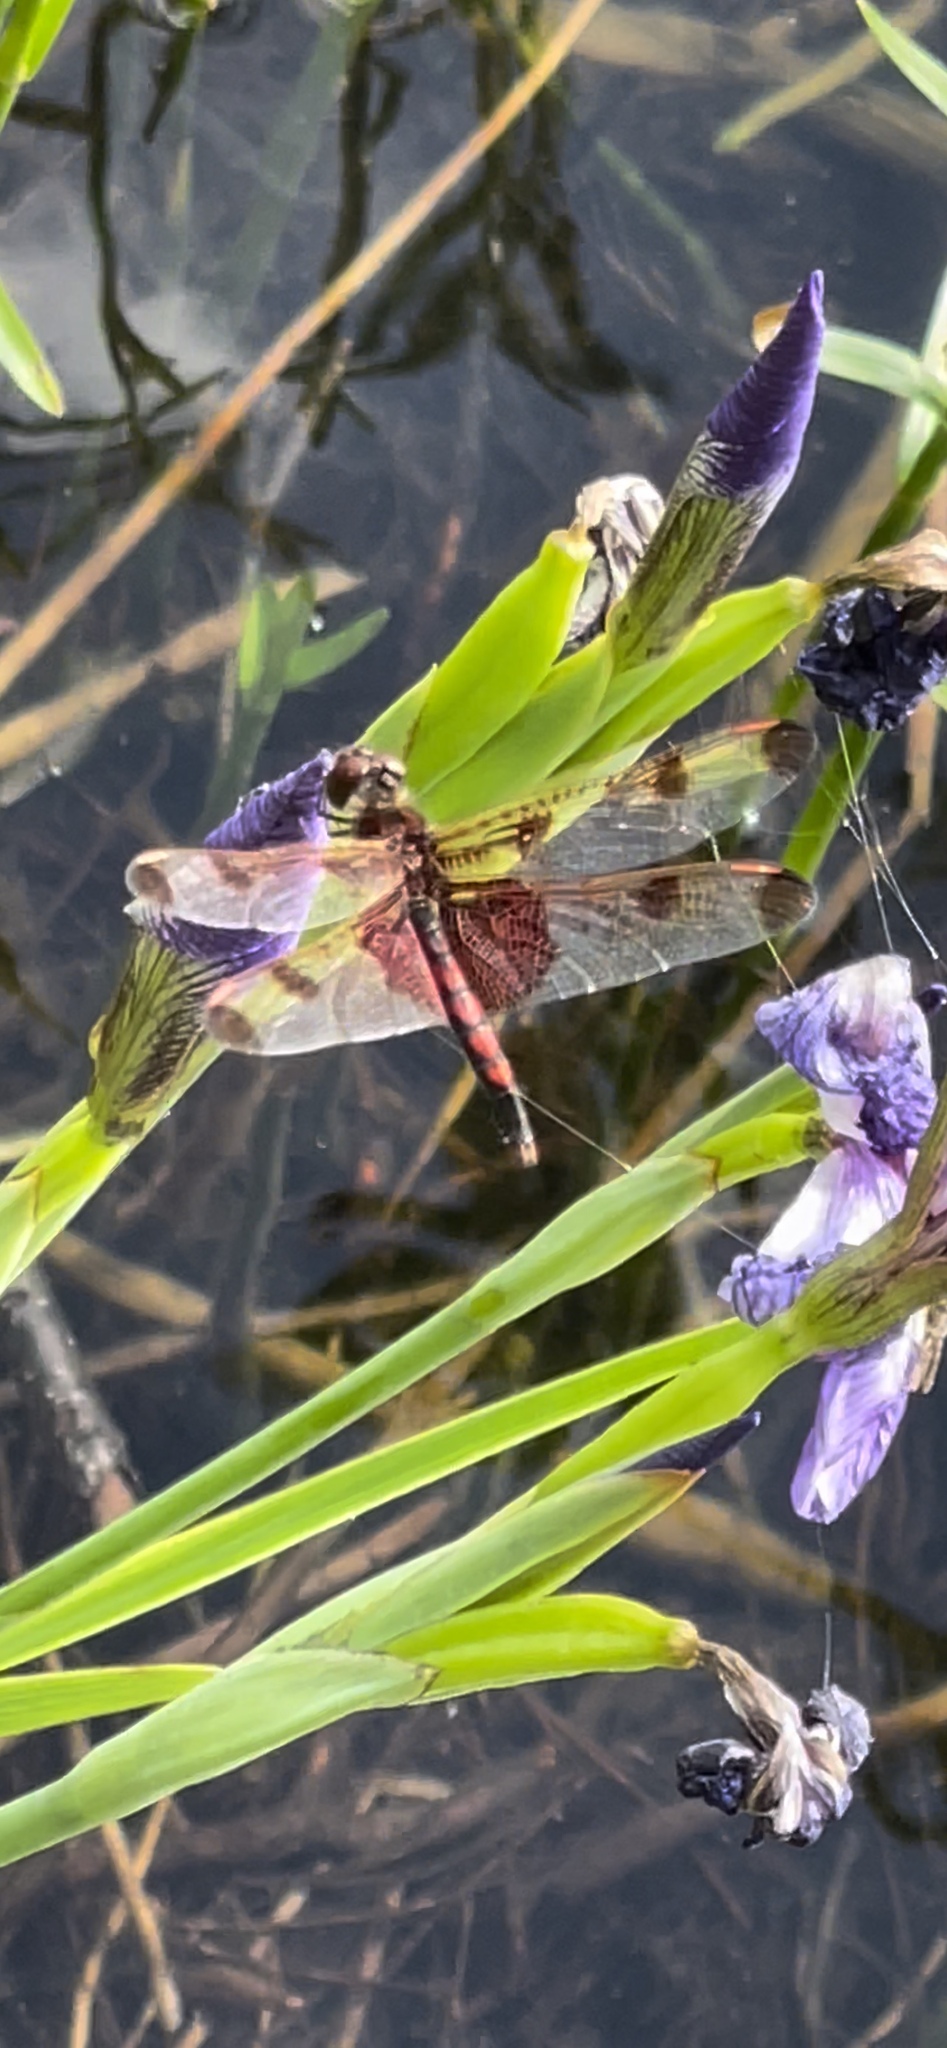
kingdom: Animalia
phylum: Arthropoda
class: Insecta
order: Odonata
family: Libellulidae
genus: Celithemis
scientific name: Celithemis elisa
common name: Calico pennant
